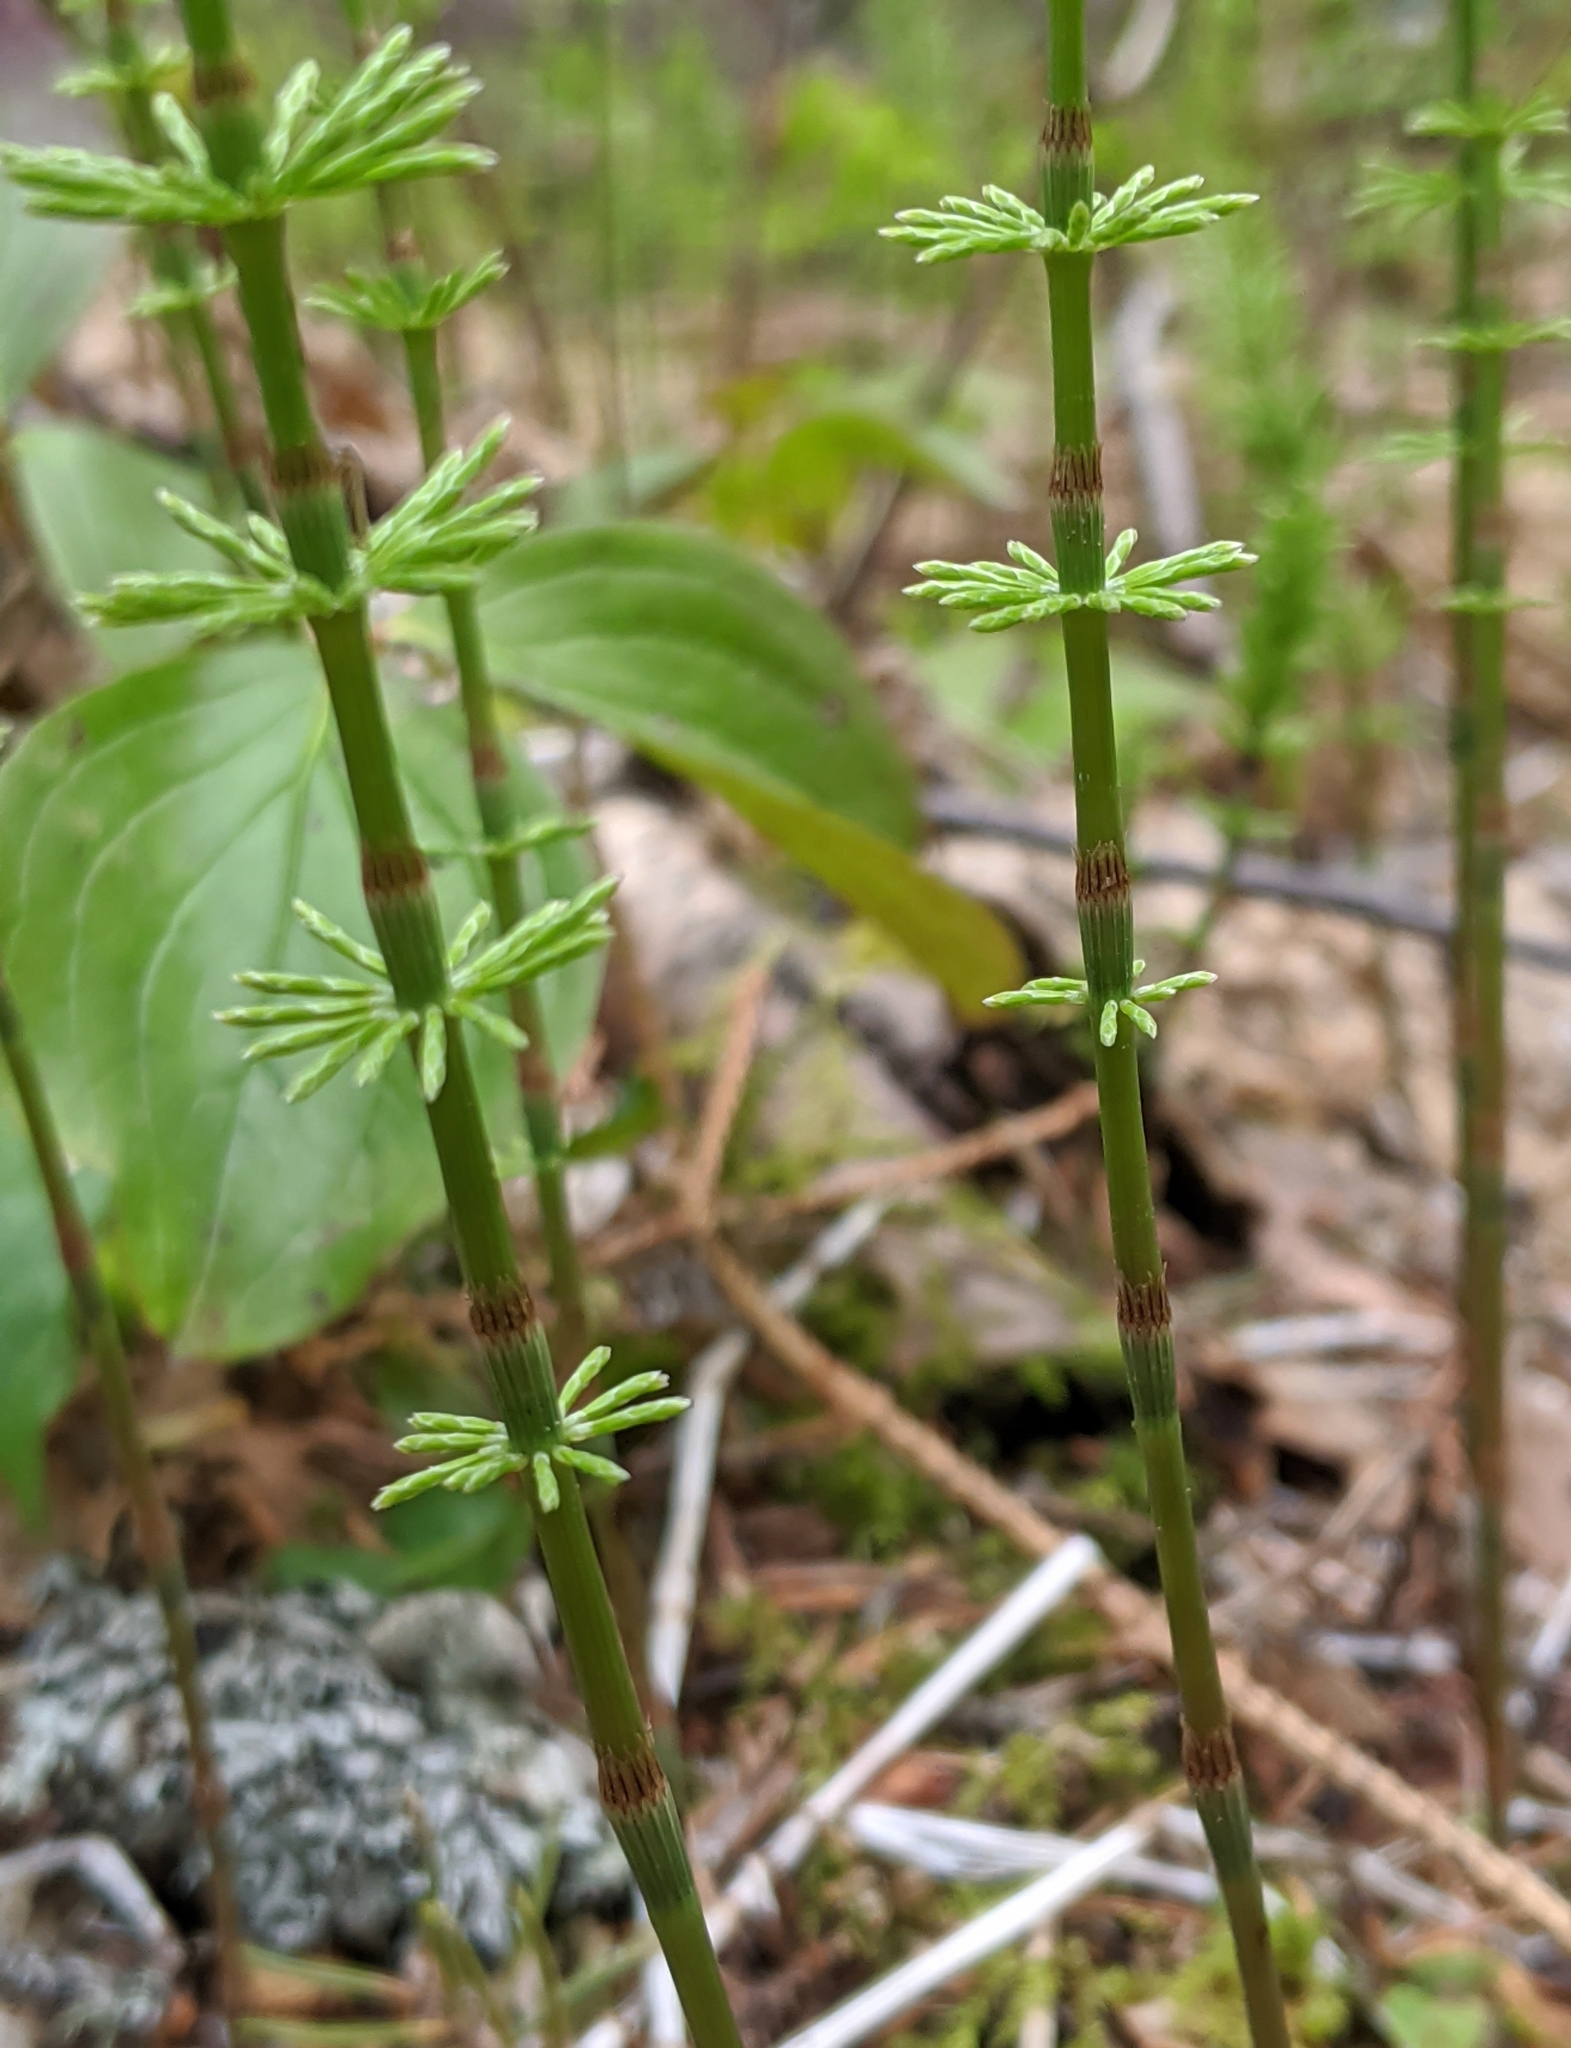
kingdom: Plantae
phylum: Tracheophyta
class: Polypodiopsida
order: Equisetales
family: Equisetaceae
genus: Equisetum
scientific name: Equisetum pratense
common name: Meadow horsetail
